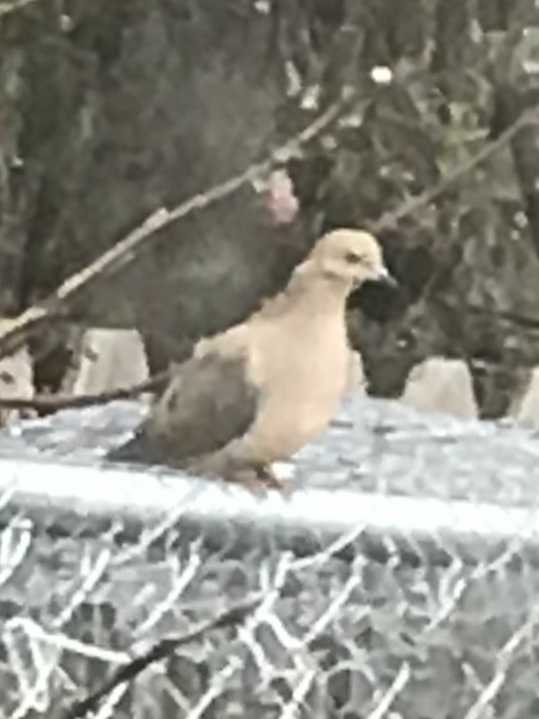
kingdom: Animalia
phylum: Chordata
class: Aves
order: Columbiformes
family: Columbidae
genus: Zenaida
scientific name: Zenaida macroura
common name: Mourning dove
